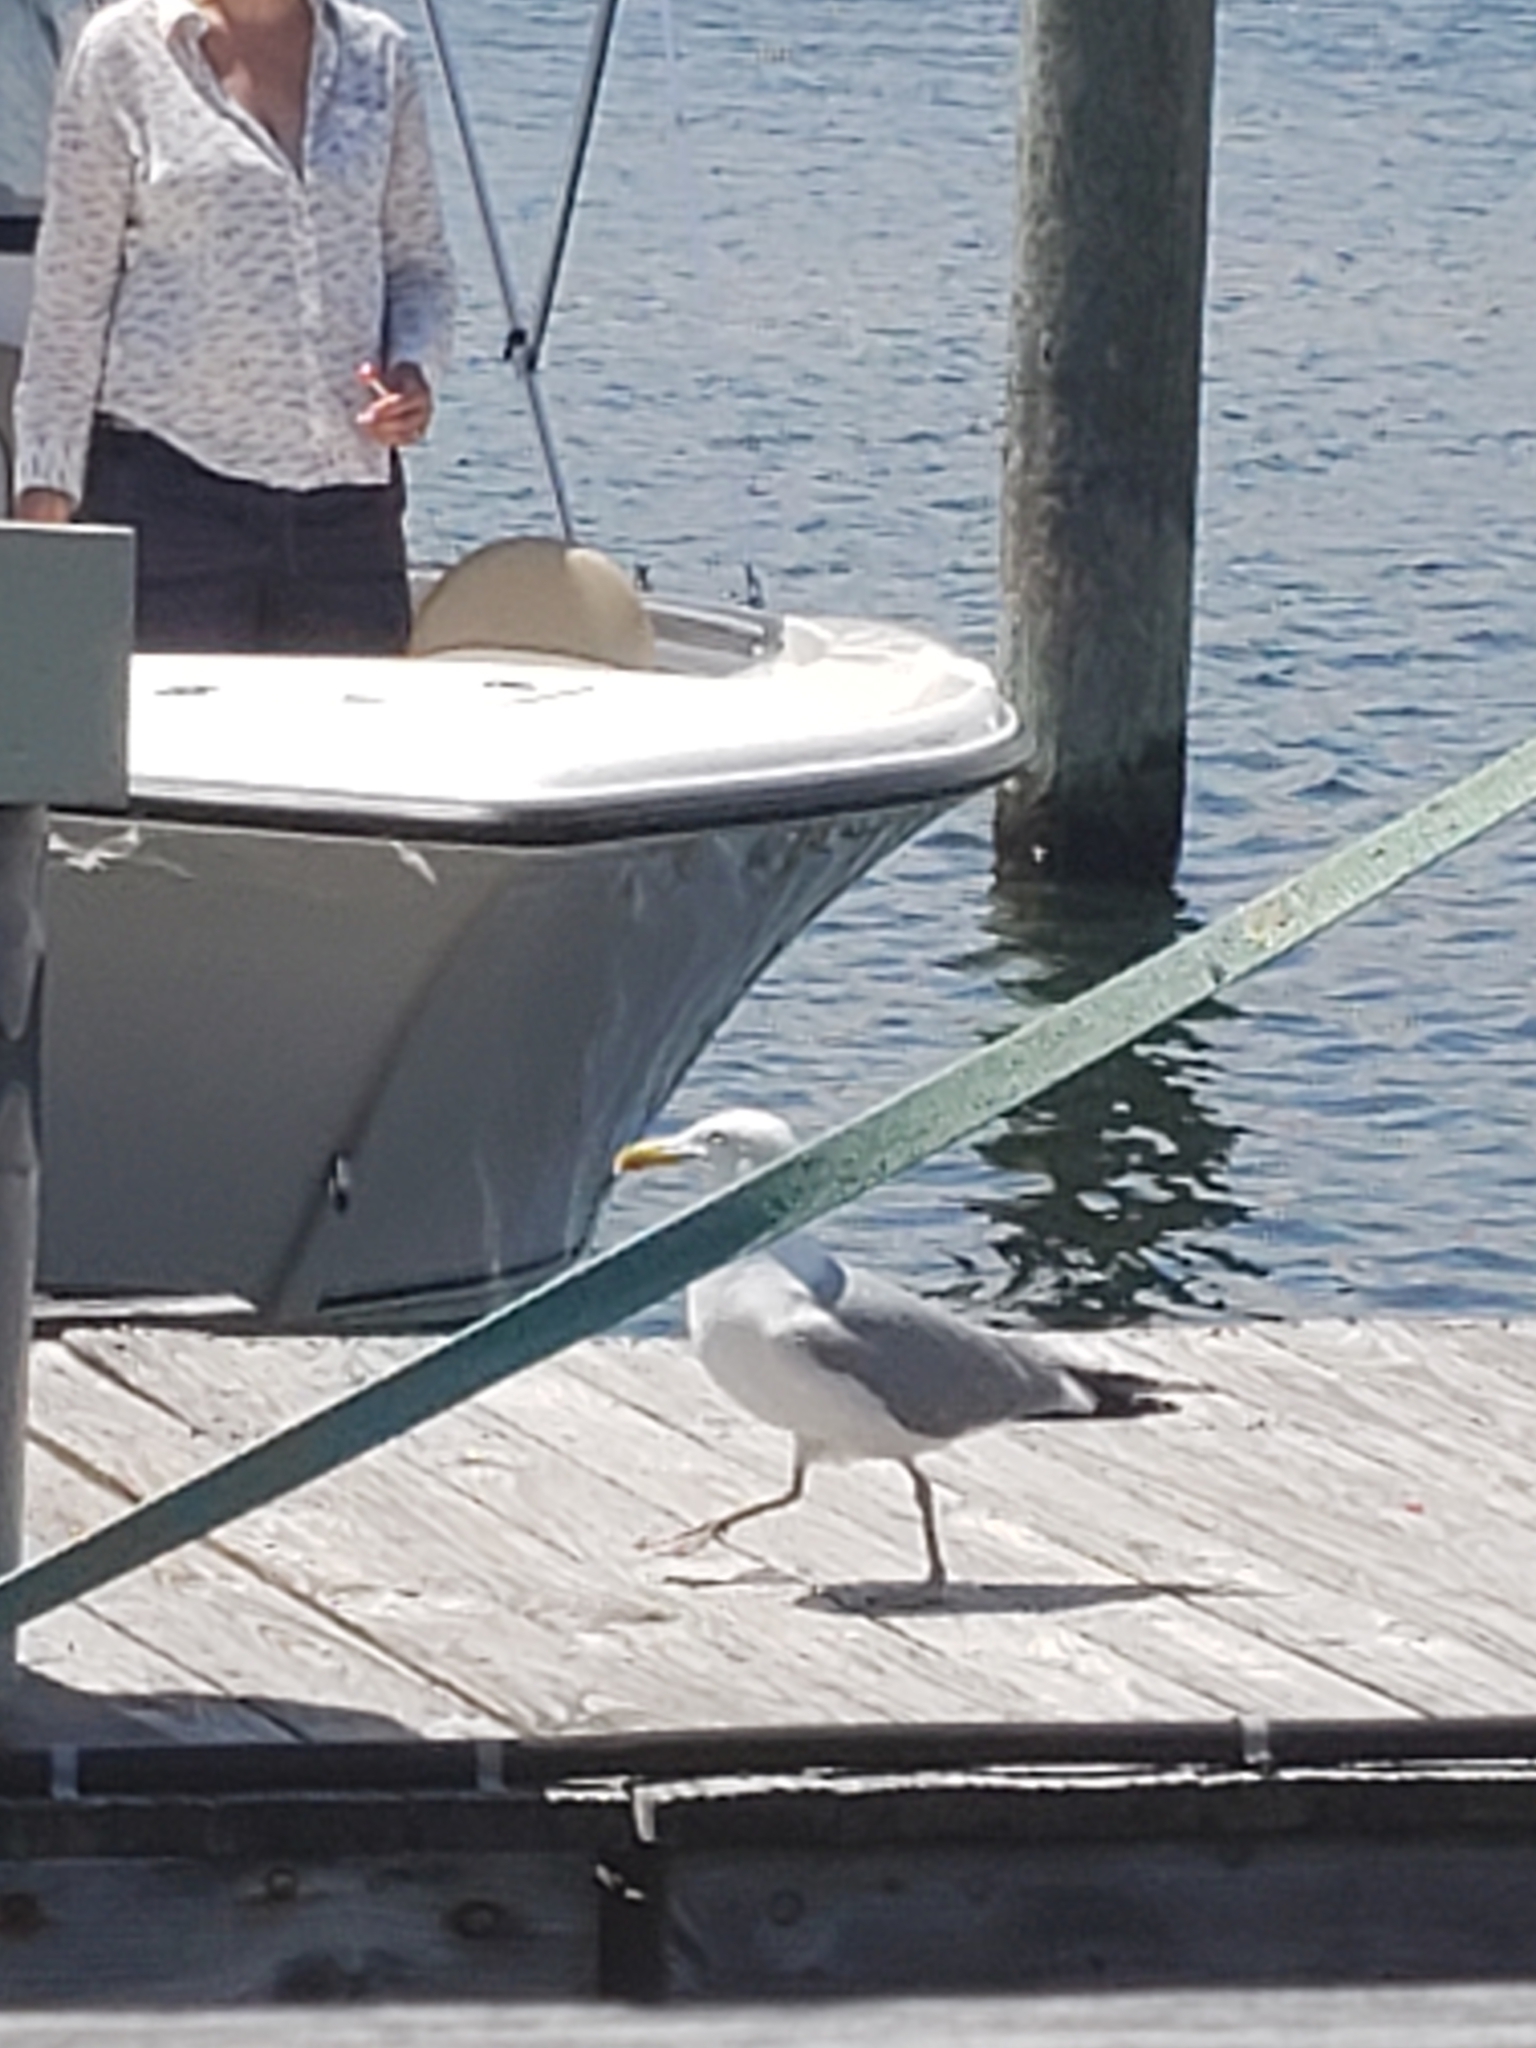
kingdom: Animalia
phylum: Chordata
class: Aves
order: Charadriiformes
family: Laridae
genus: Larus
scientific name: Larus argentatus
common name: Herring gull
